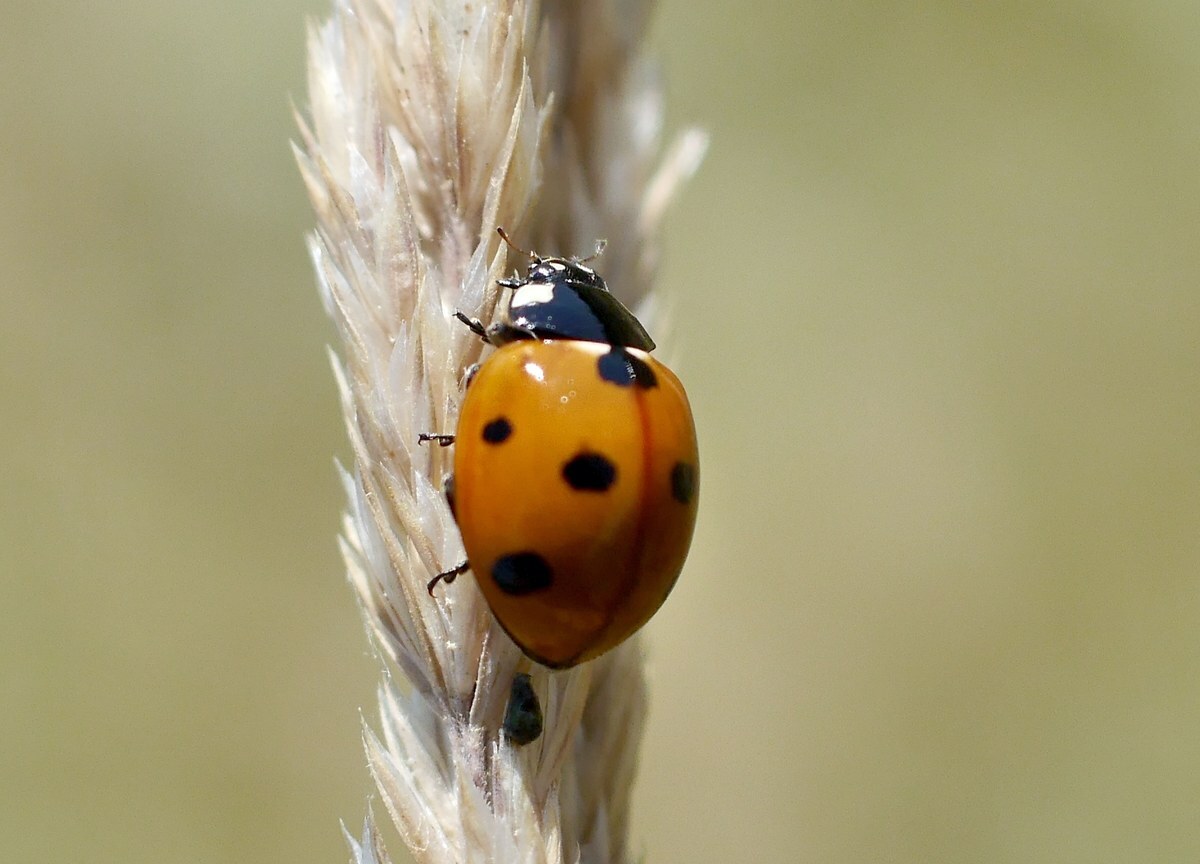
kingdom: Animalia
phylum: Arthropoda
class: Insecta
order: Coleoptera
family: Coccinellidae
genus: Coccinella
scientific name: Coccinella septempunctata
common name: Sevenspotted lady beetle
